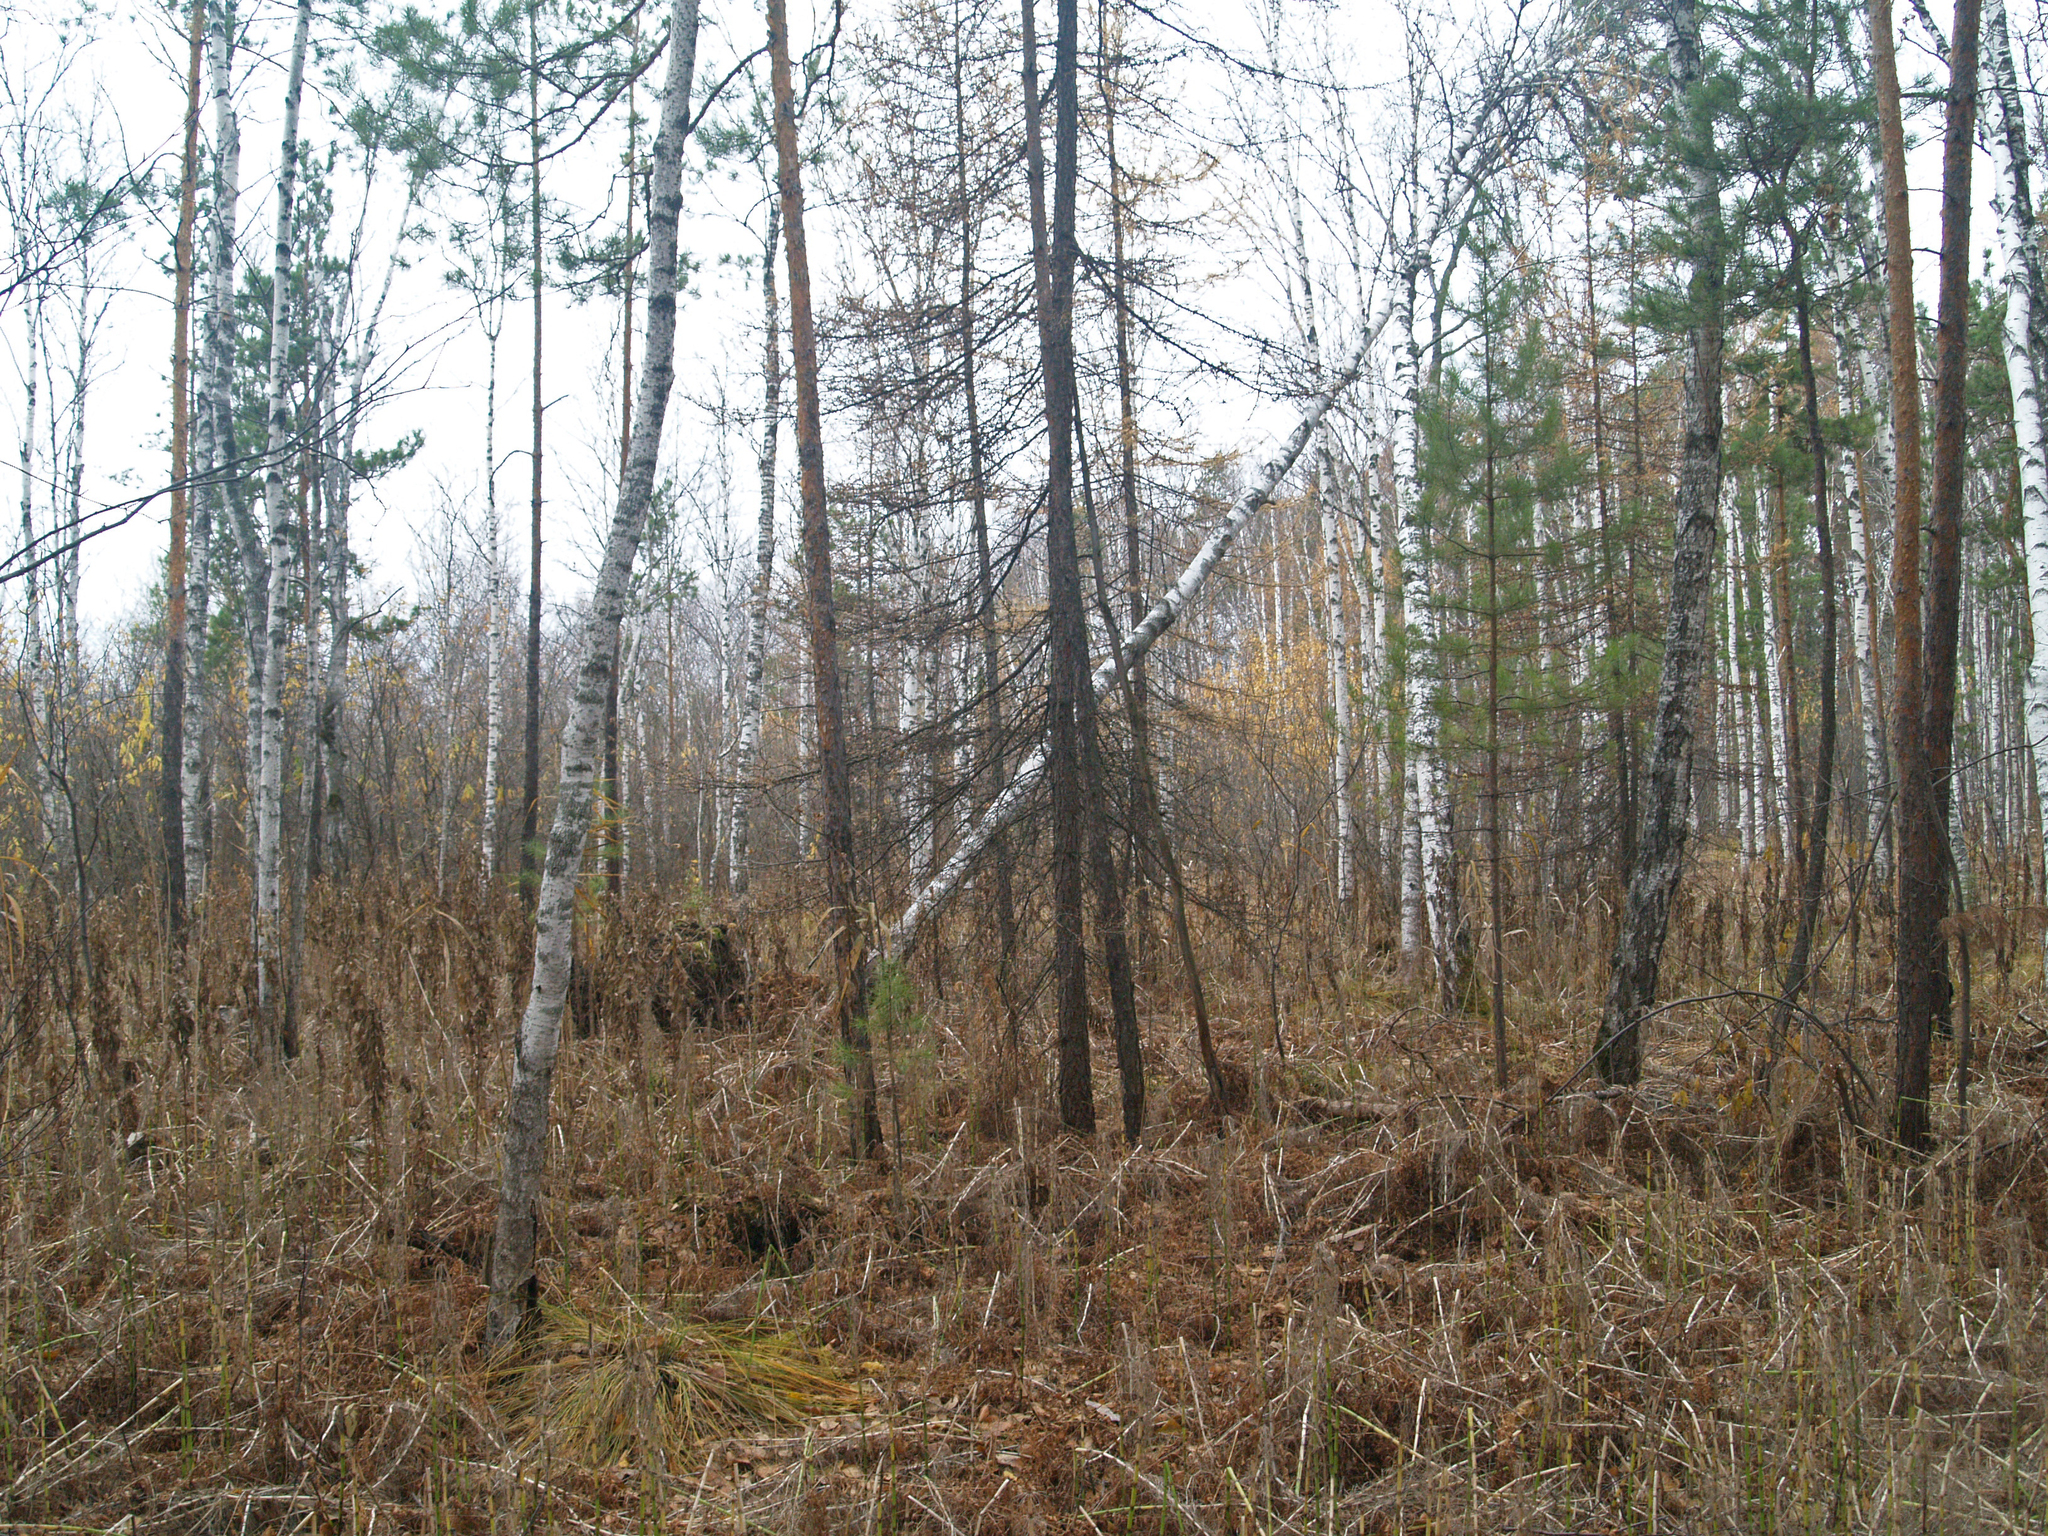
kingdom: Plantae
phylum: Tracheophyta
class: Magnoliopsida
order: Fagales
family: Betulaceae
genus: Betula
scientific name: Betula pubescens
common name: Downy birch
